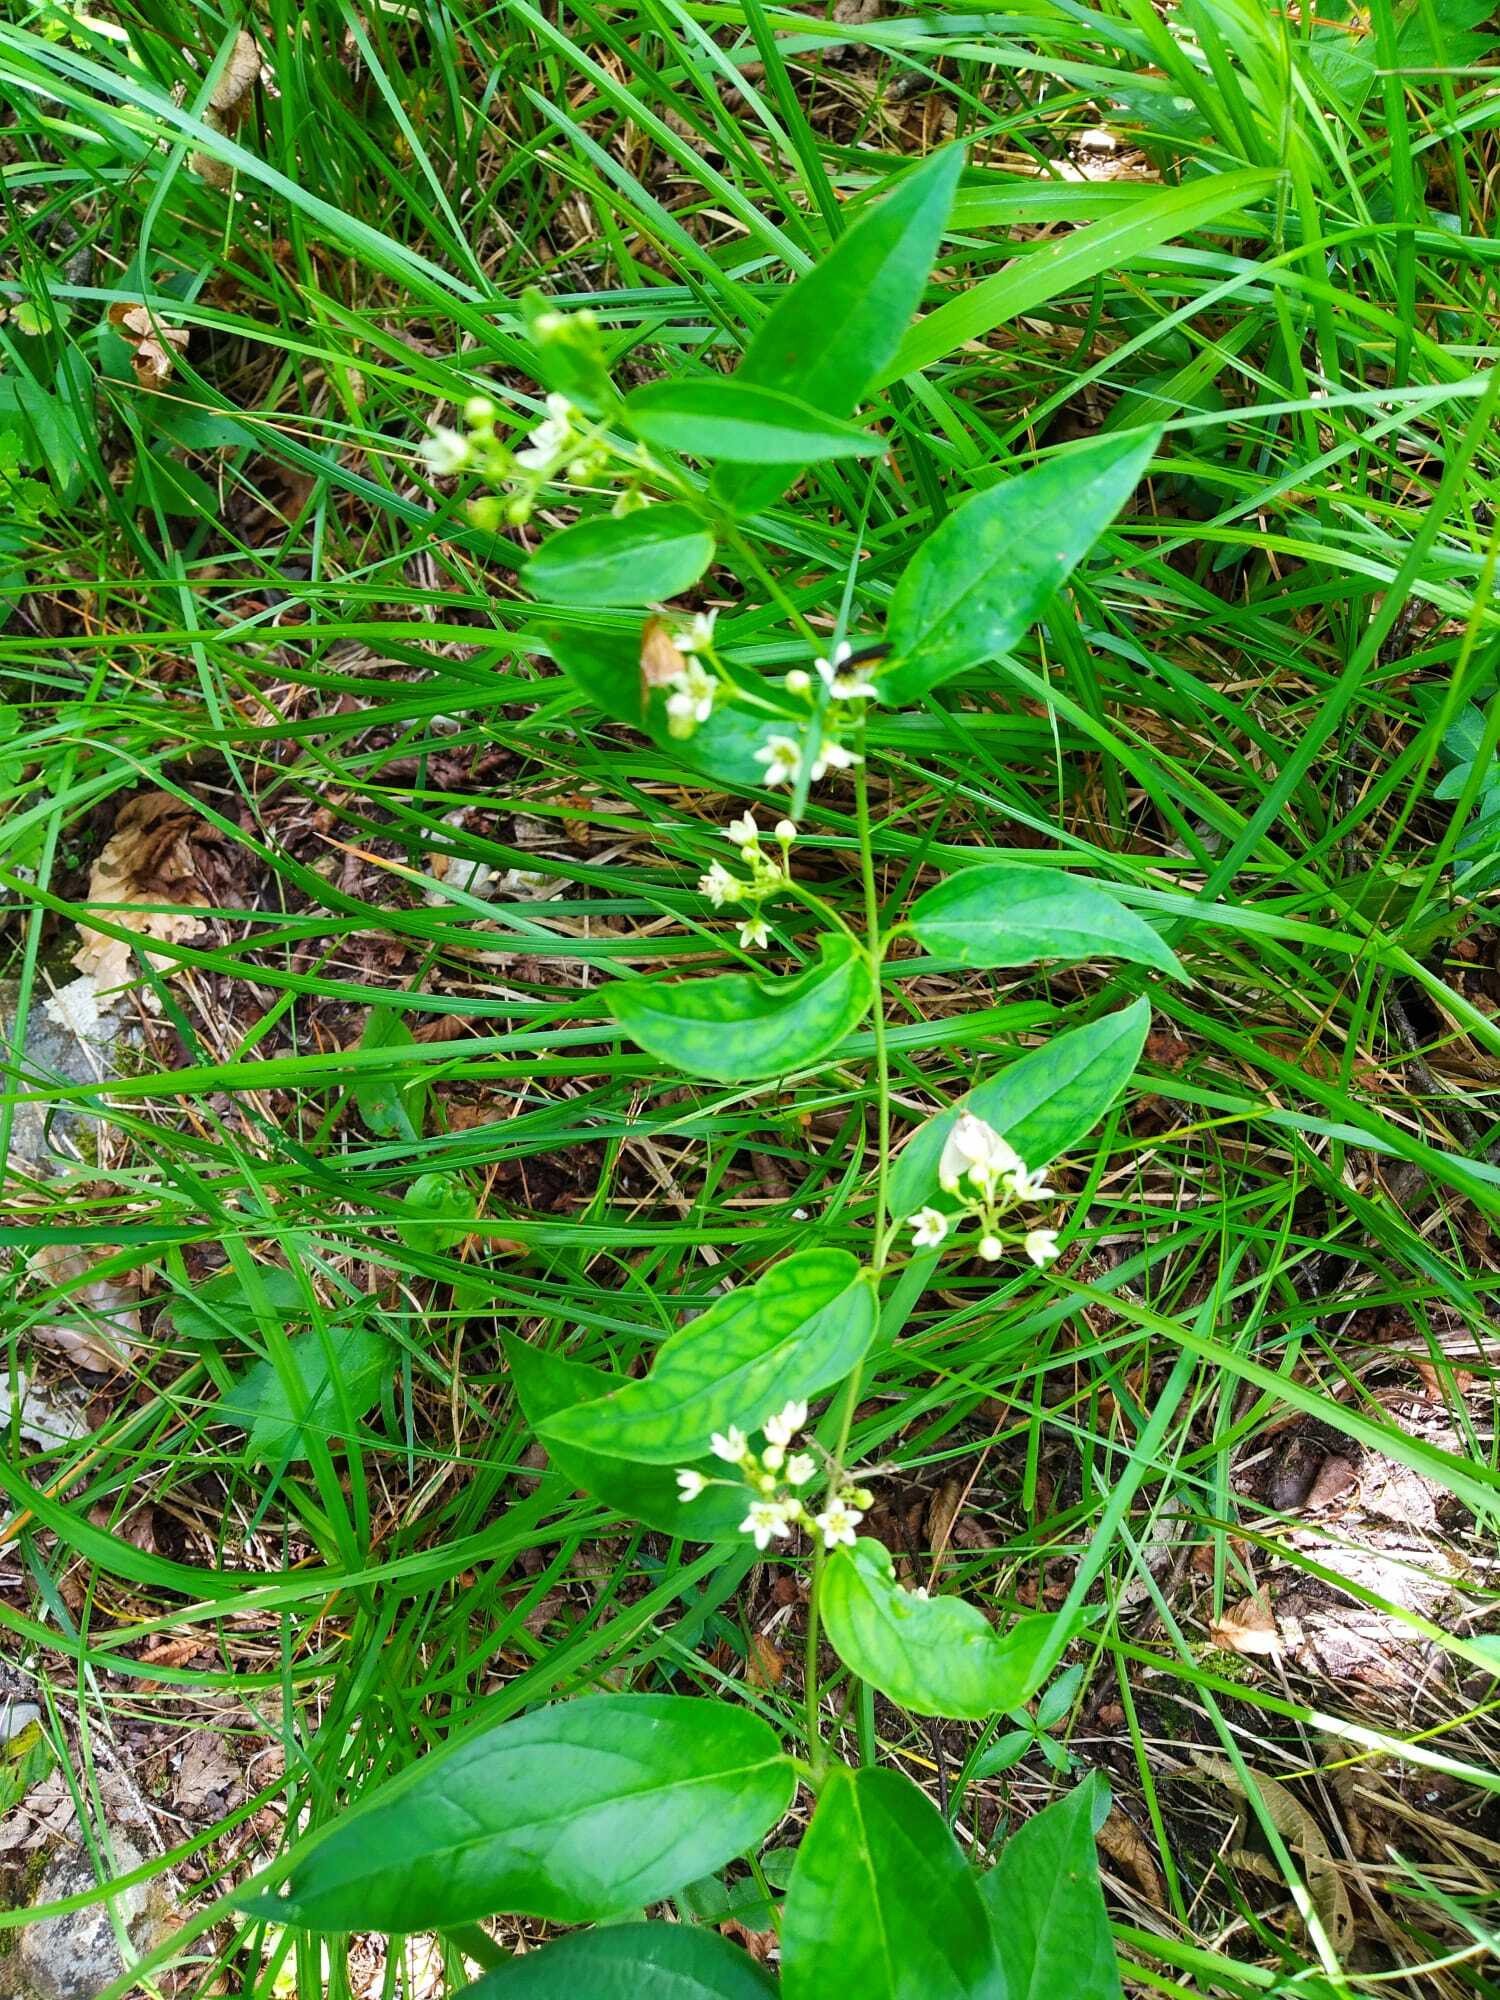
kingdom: Plantae
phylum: Tracheophyta
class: Magnoliopsida
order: Gentianales
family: Apocynaceae
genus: Vincetoxicum
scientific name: Vincetoxicum hirundinaria
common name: White swallowwort
